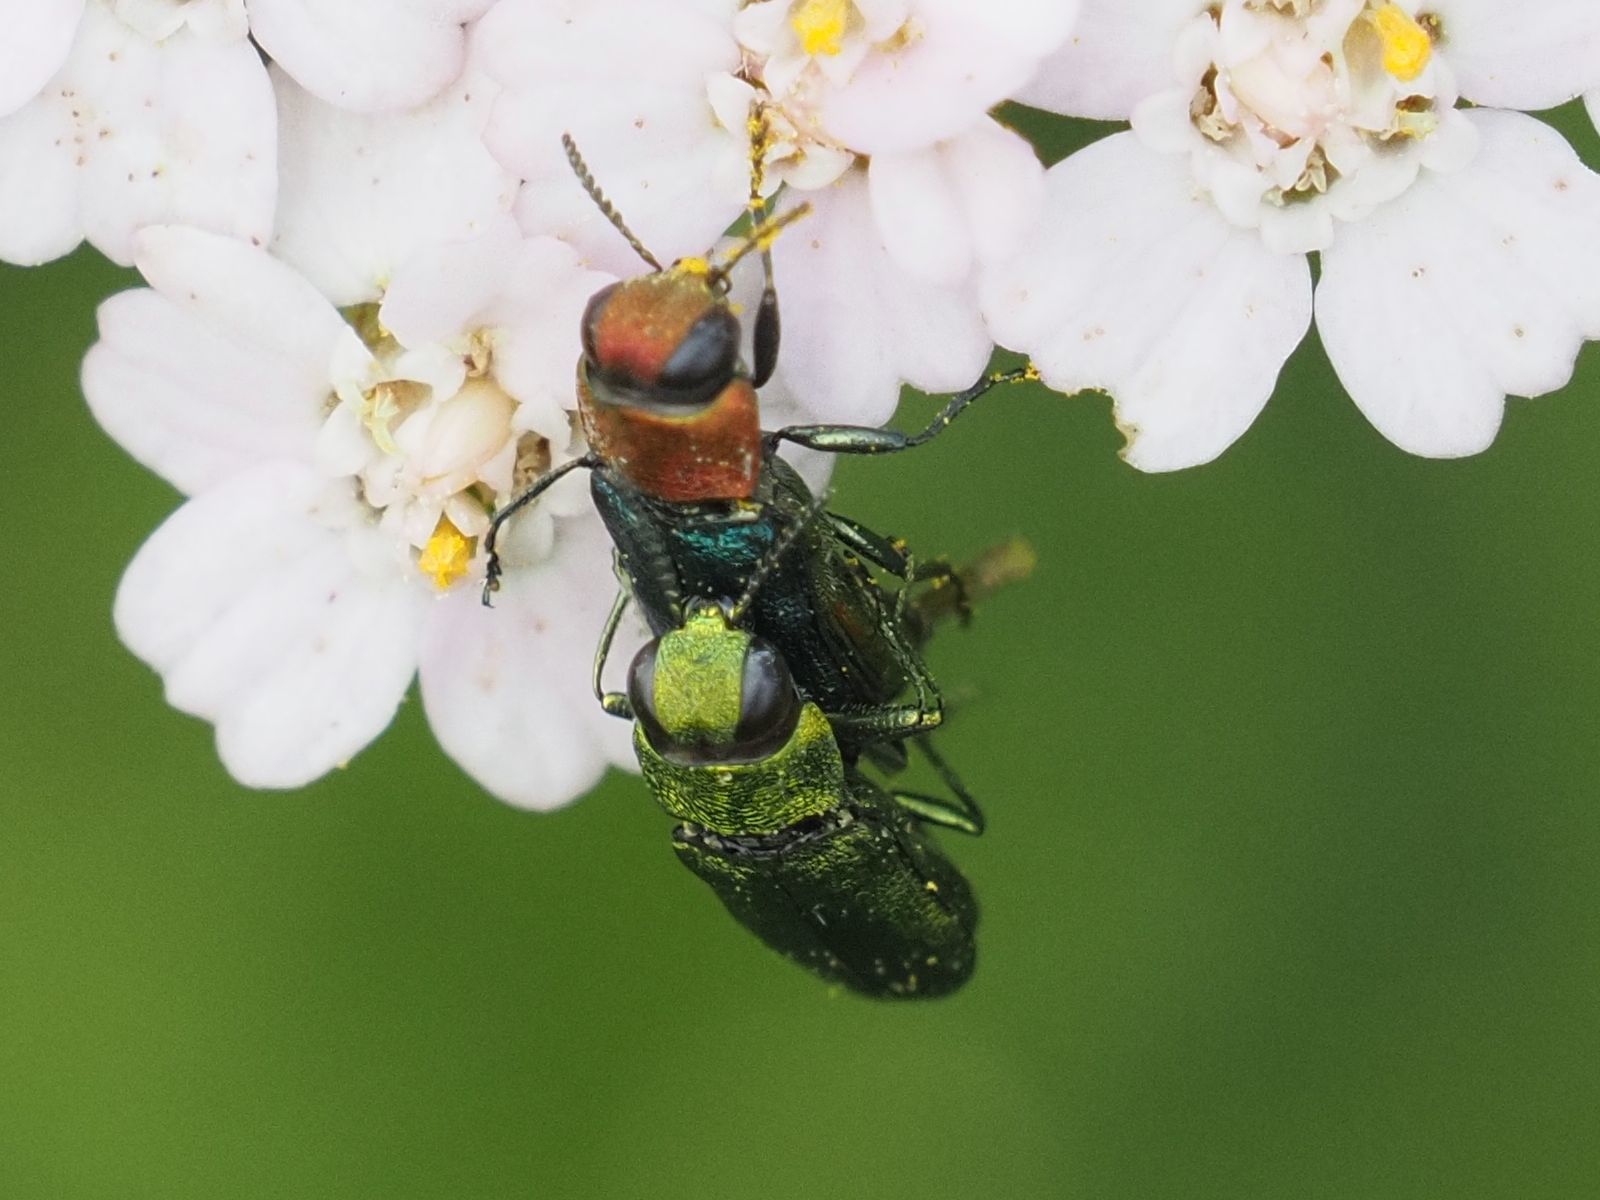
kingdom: Animalia
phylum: Arthropoda
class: Insecta
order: Coleoptera
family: Buprestidae
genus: Anthaxia
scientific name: Anthaxia nitidula
